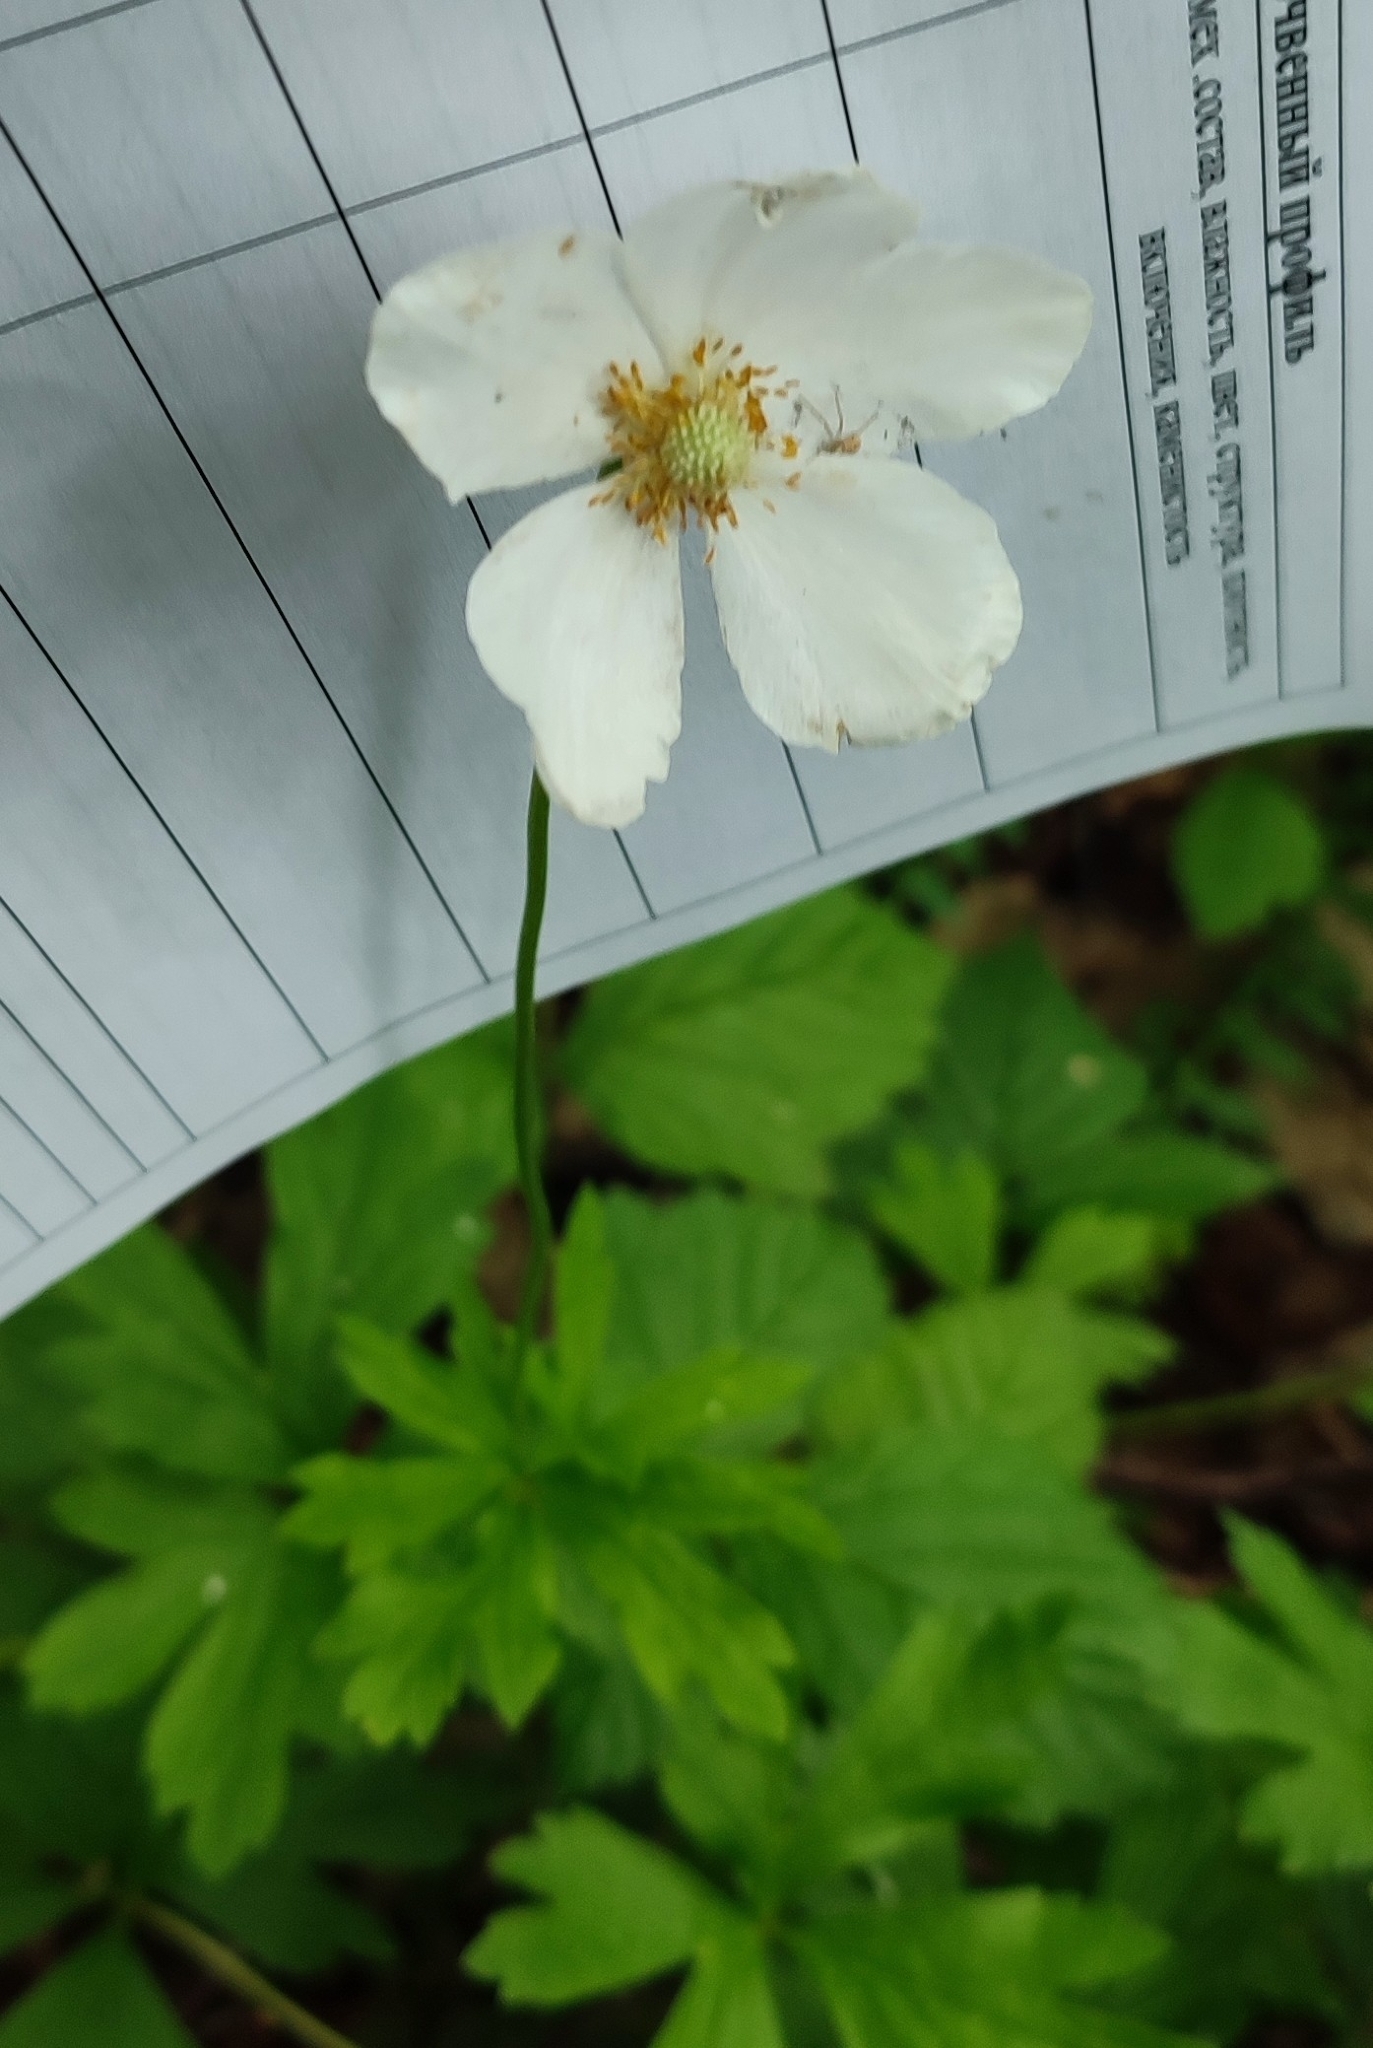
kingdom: Plantae
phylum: Tracheophyta
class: Magnoliopsida
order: Ranunculales
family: Ranunculaceae
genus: Anemone
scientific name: Anemone sylvestris
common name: Snowdrop anemone
